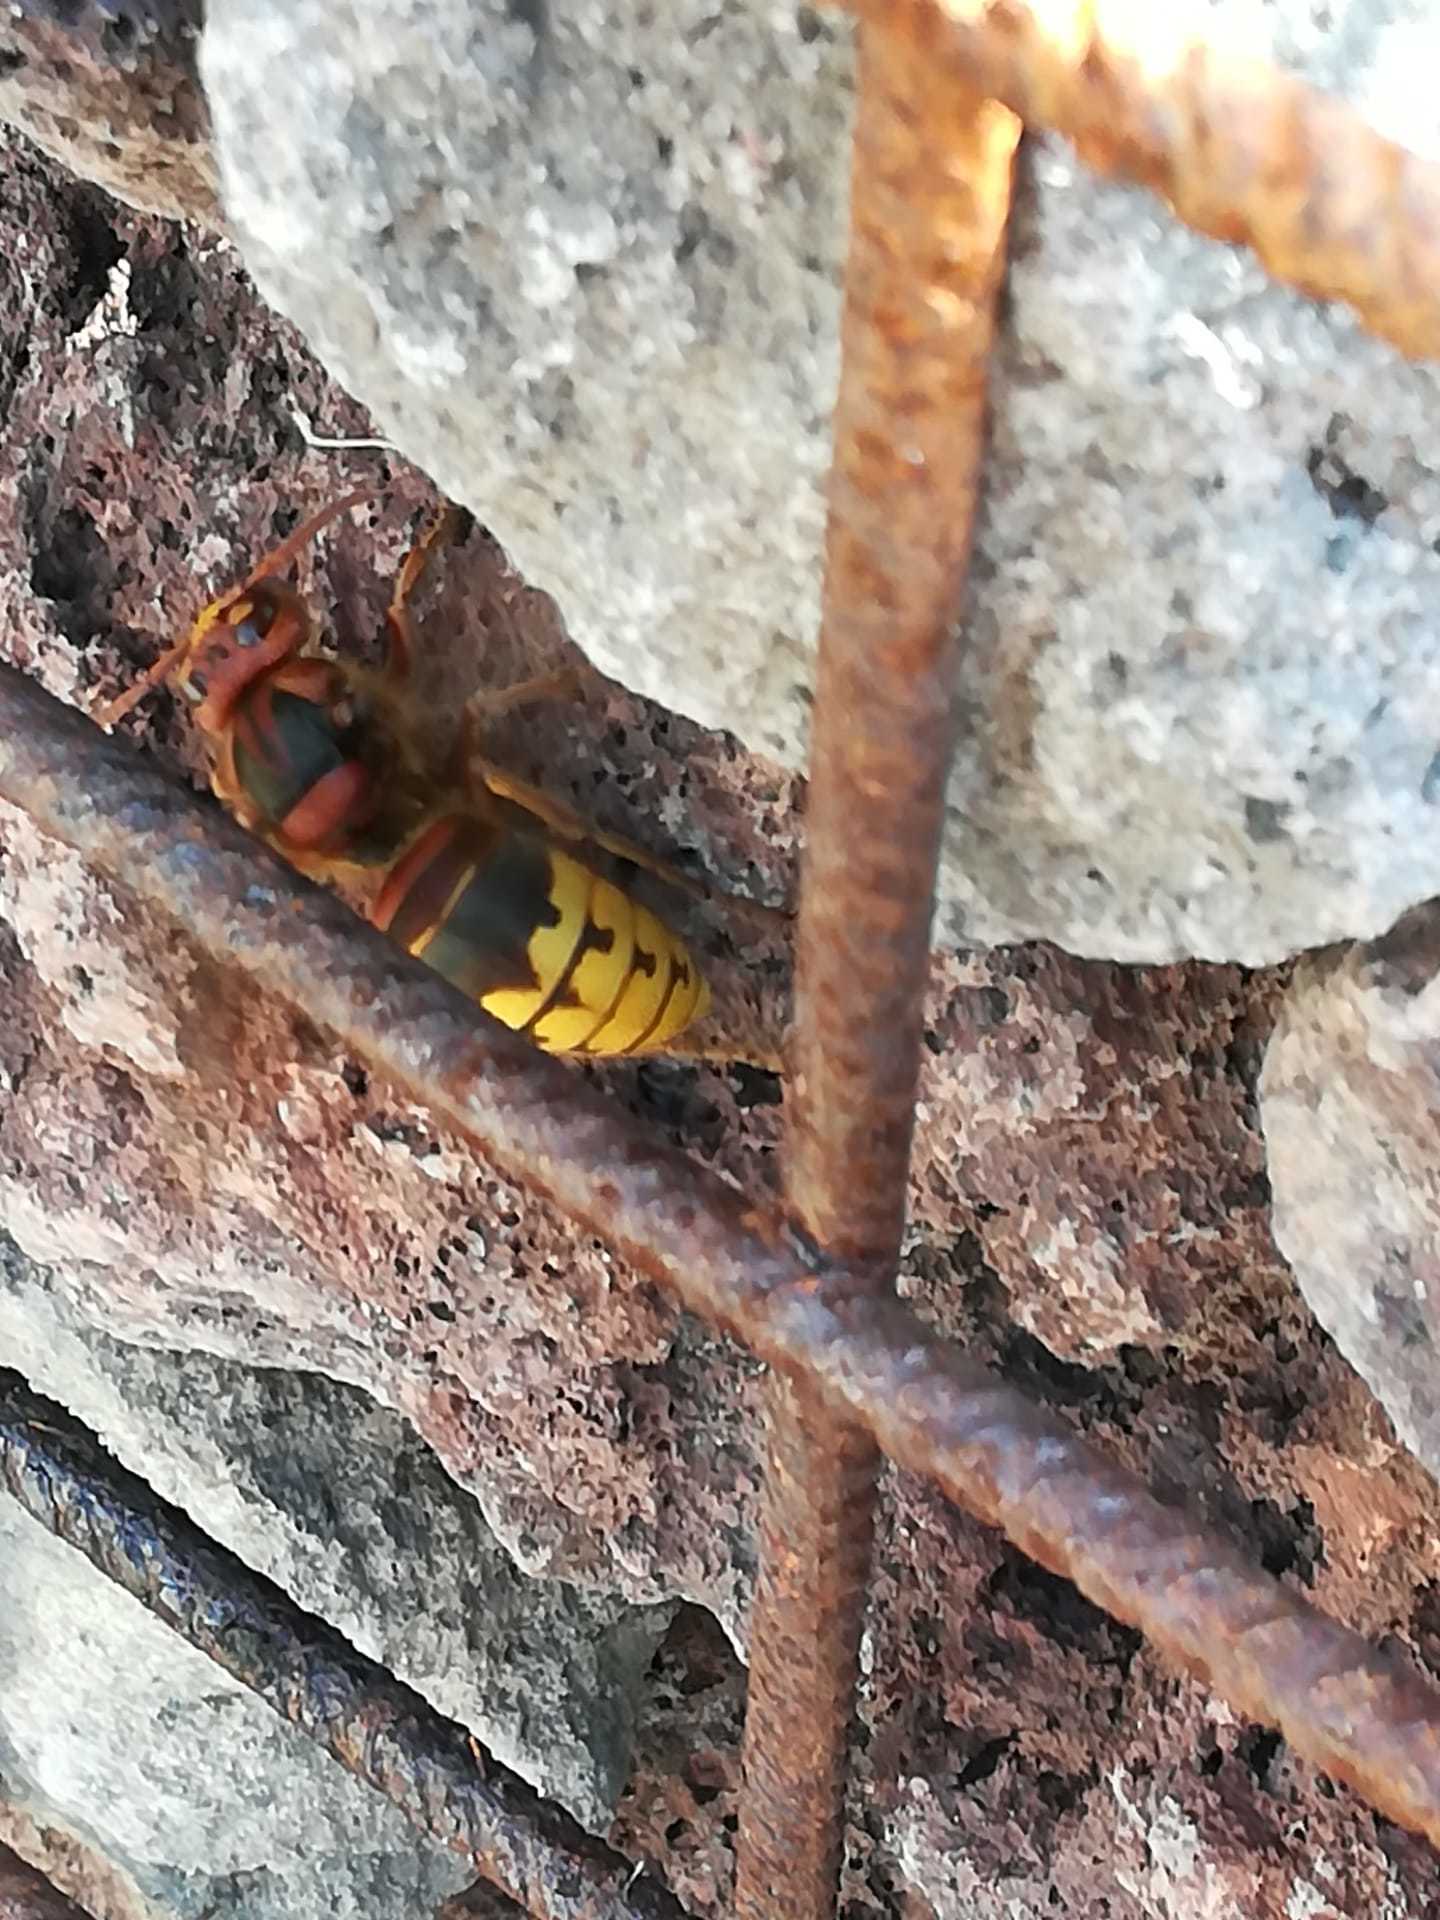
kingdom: Animalia
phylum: Arthropoda
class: Insecta
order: Hymenoptera
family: Vespidae
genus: Vespa
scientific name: Vespa crabro
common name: Hornet
